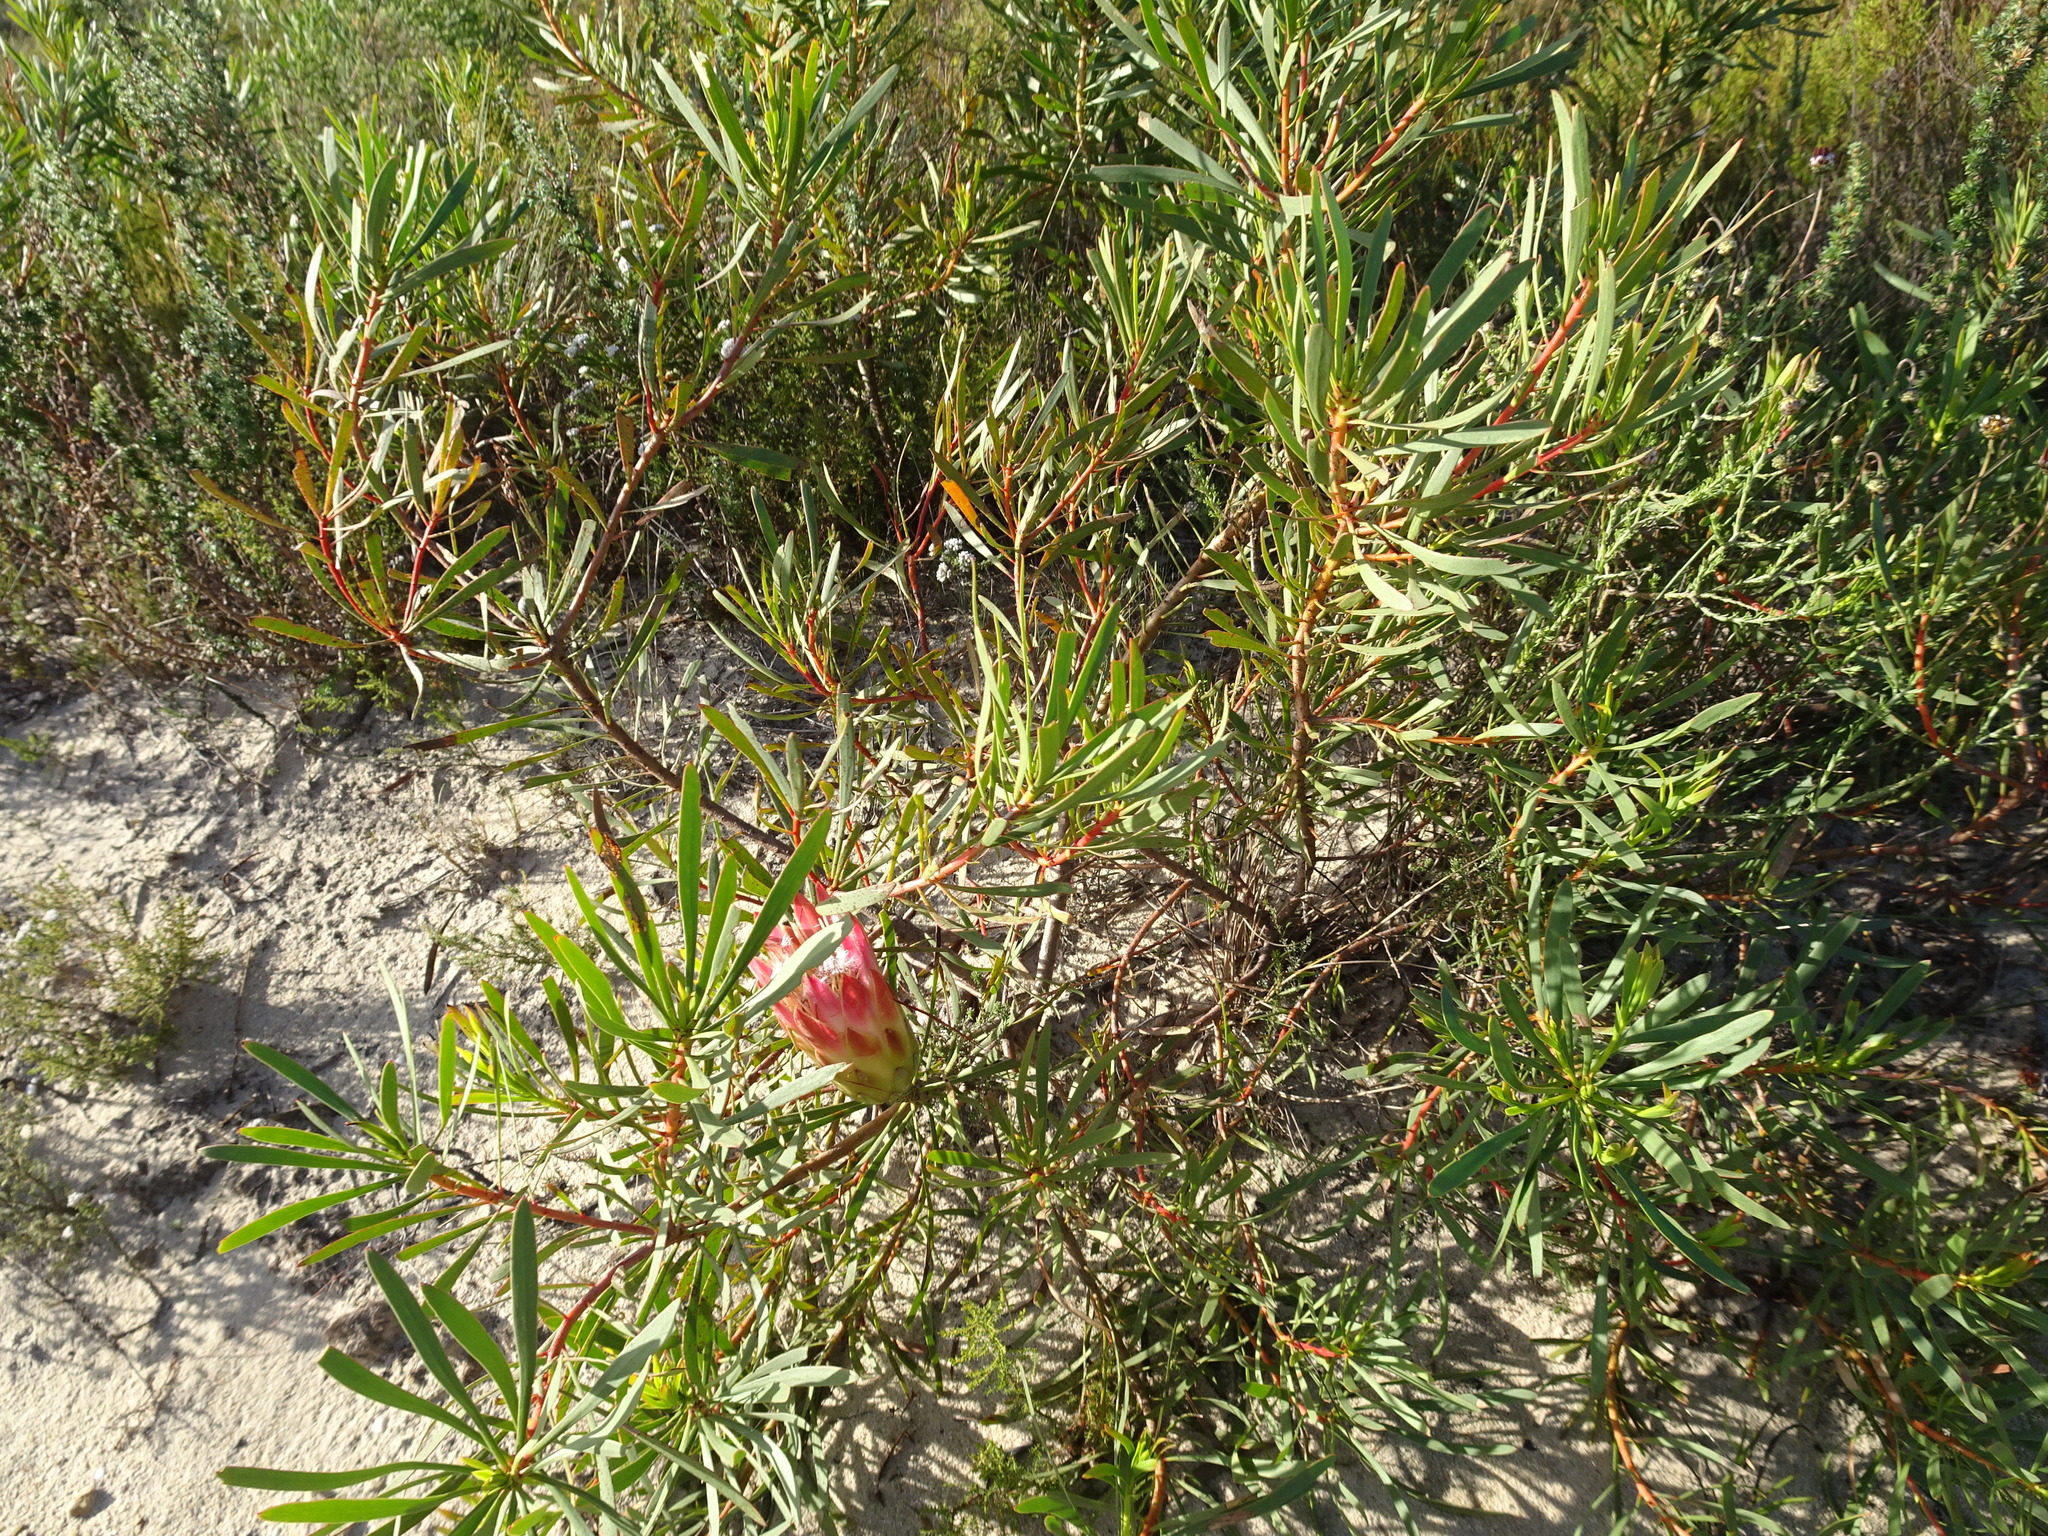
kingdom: Plantae
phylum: Tracheophyta
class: Magnoliopsida
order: Proteales
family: Proteaceae
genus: Protea
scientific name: Protea repens
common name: Sugarbush
